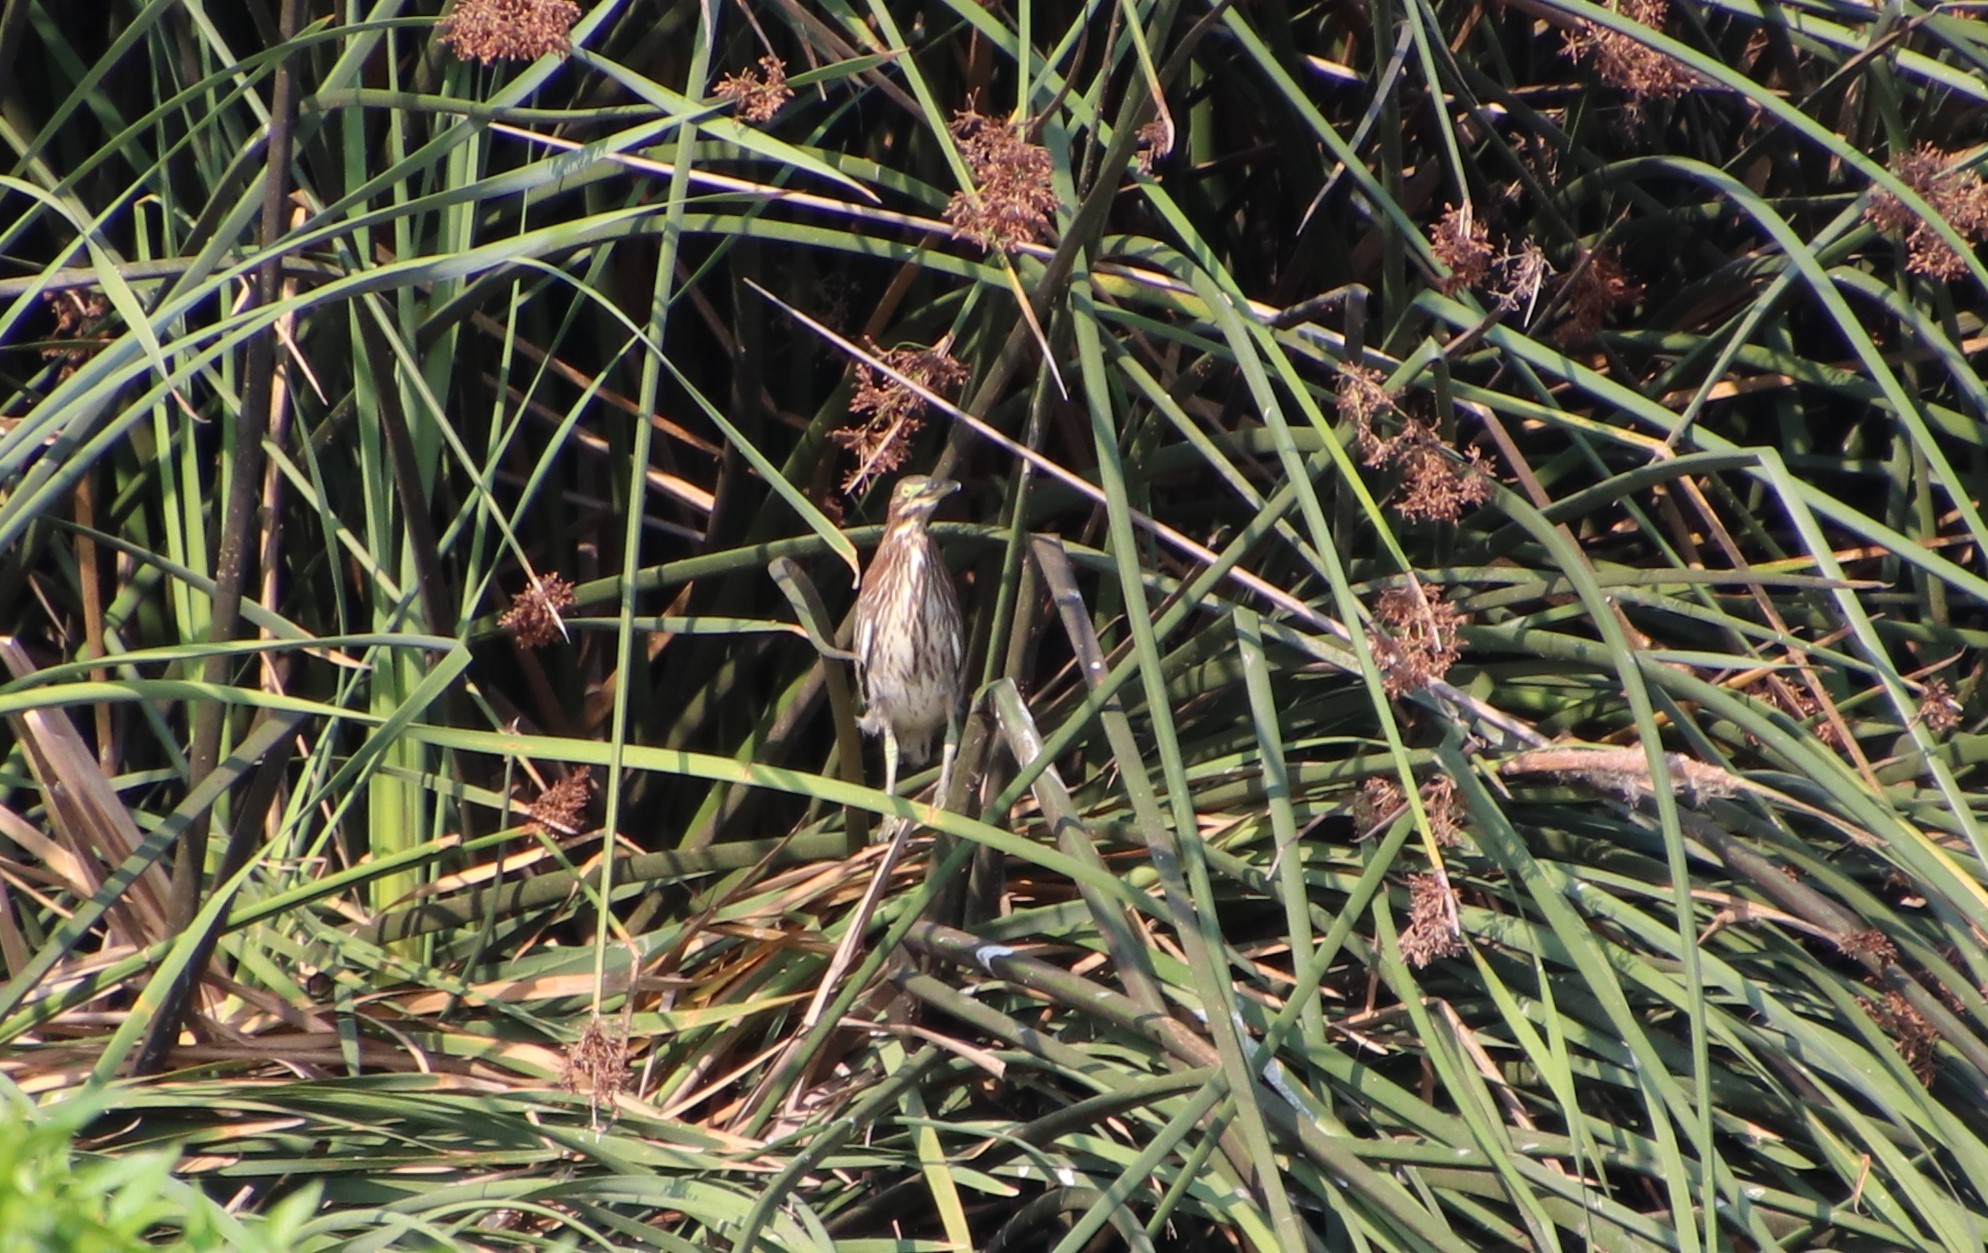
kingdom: Animalia
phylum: Chordata
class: Aves
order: Pelecaniformes
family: Ardeidae
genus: Butorides
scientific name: Butorides virescens
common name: Green heron
